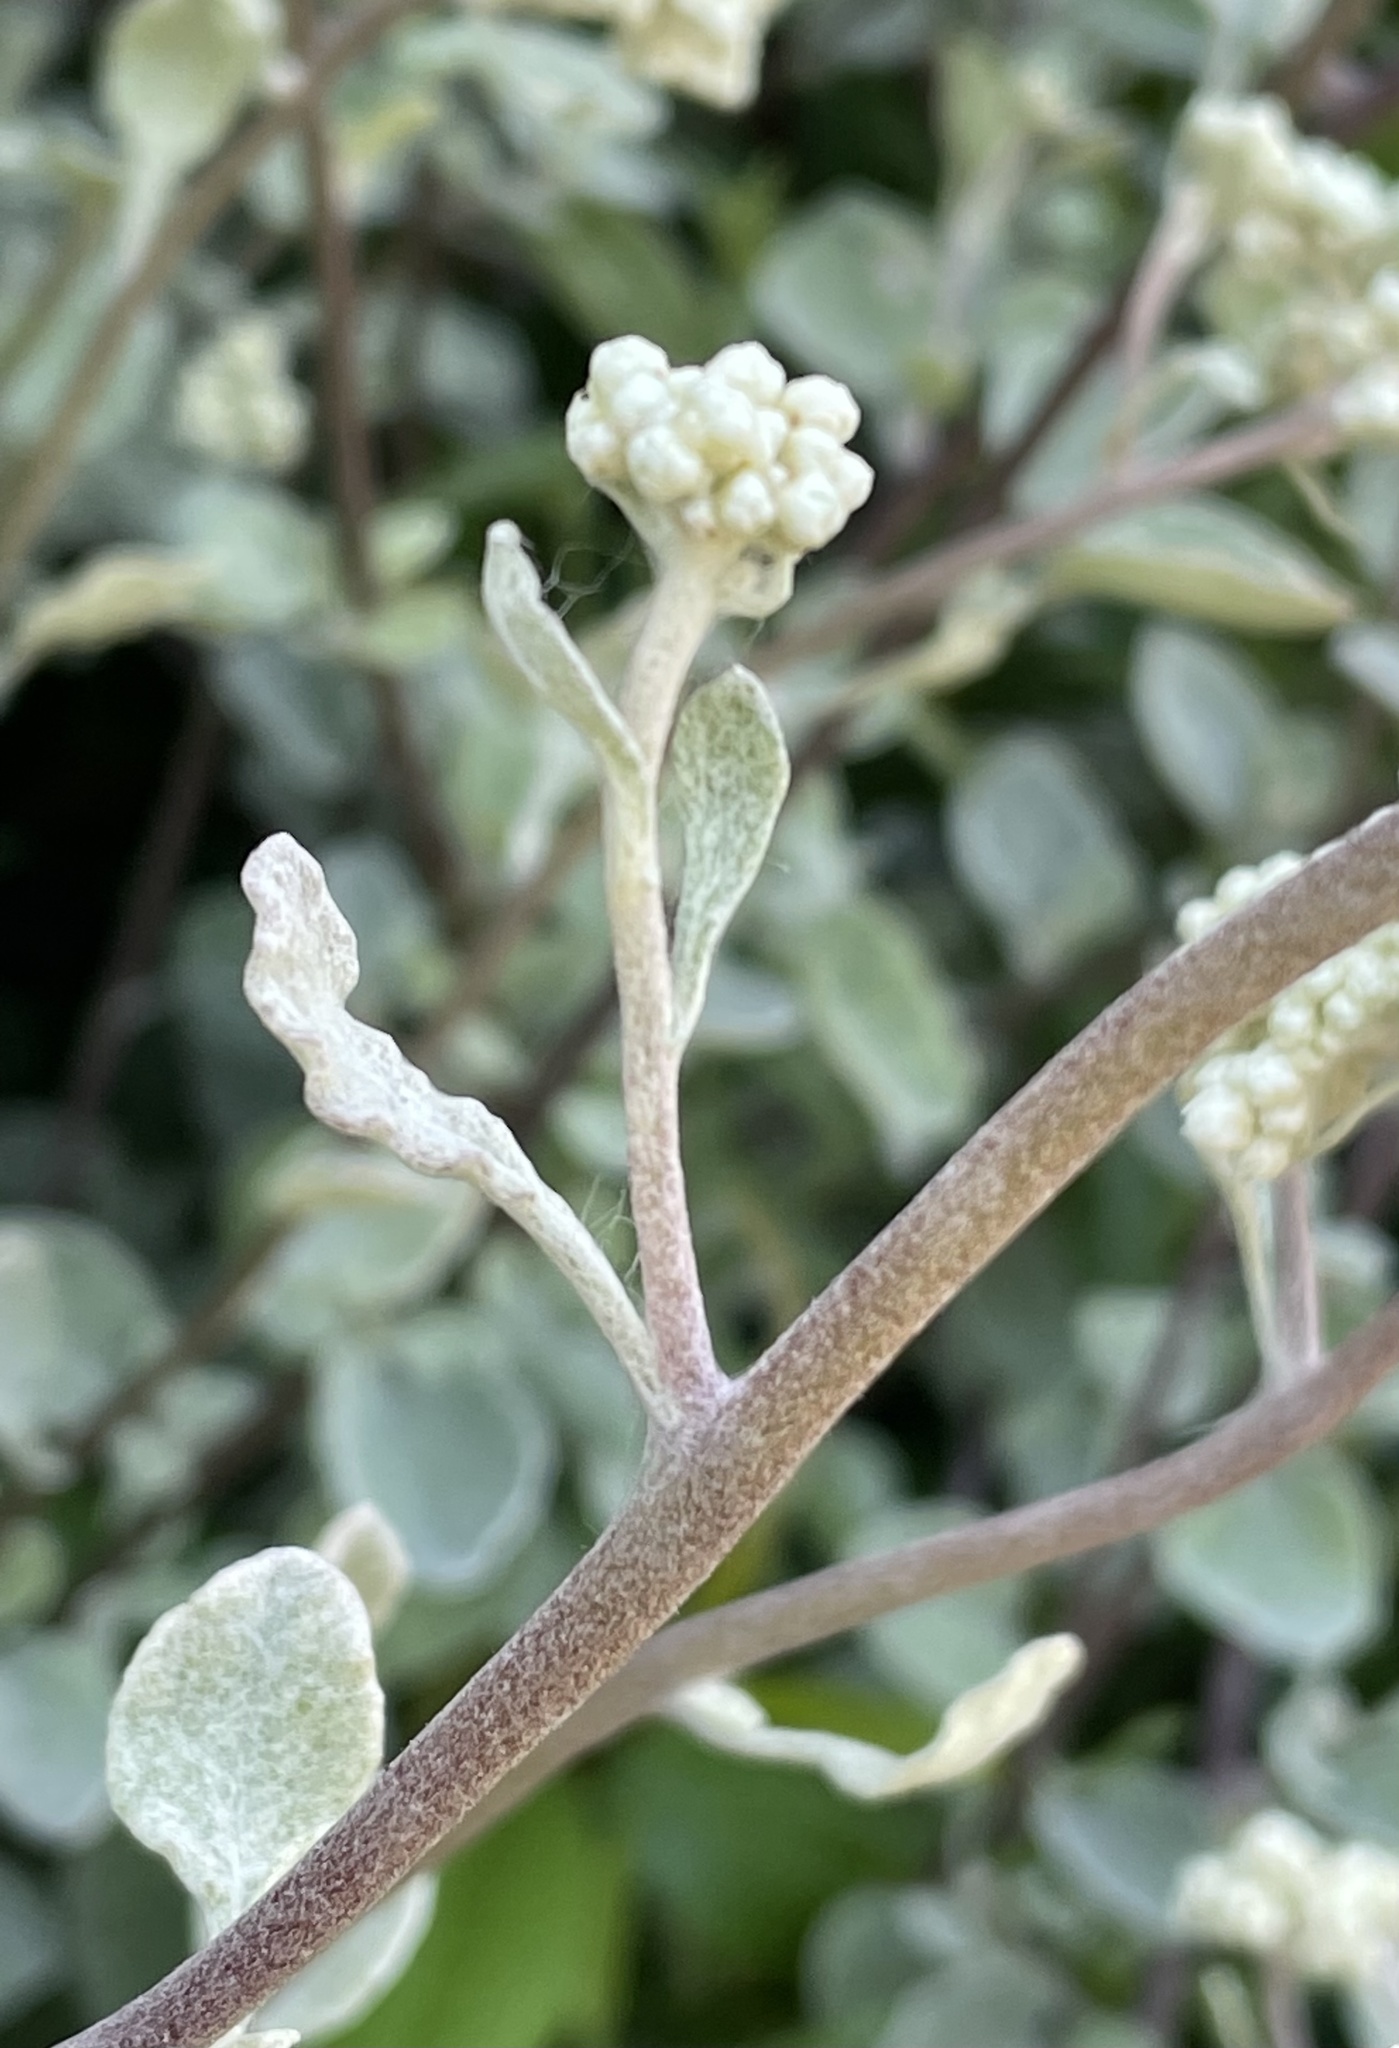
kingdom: Plantae
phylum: Tracheophyta
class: Magnoliopsida
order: Asterales
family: Asteraceae
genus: Helichrysum
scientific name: Helichrysum petiolare
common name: Licorice-plant
